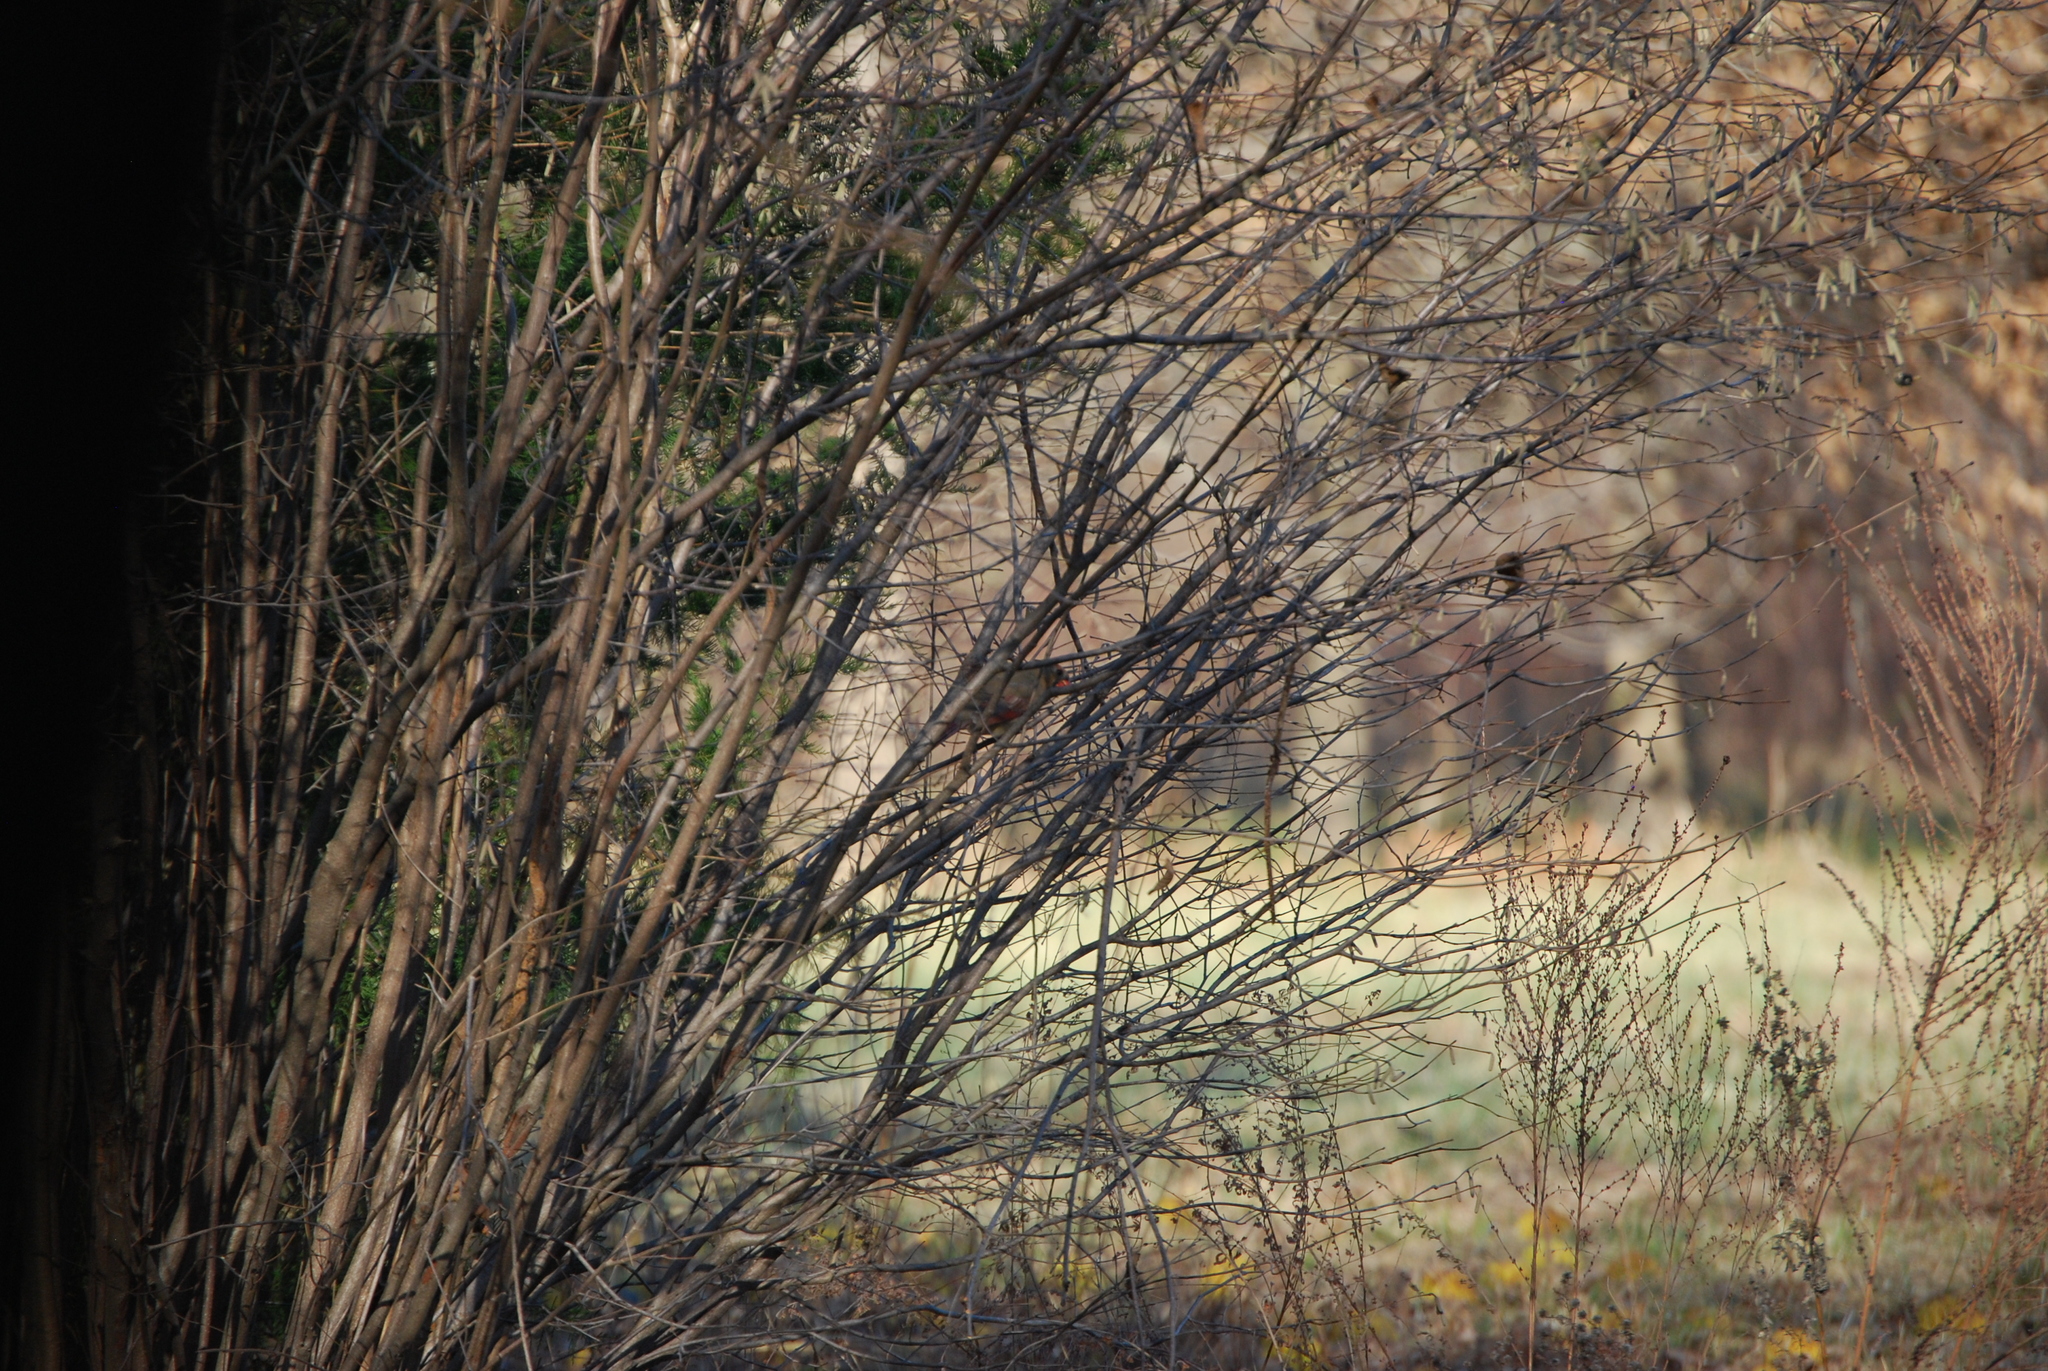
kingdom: Animalia
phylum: Chordata
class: Aves
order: Passeriformes
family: Cardinalidae
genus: Cardinalis
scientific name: Cardinalis cardinalis
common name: Northern cardinal
